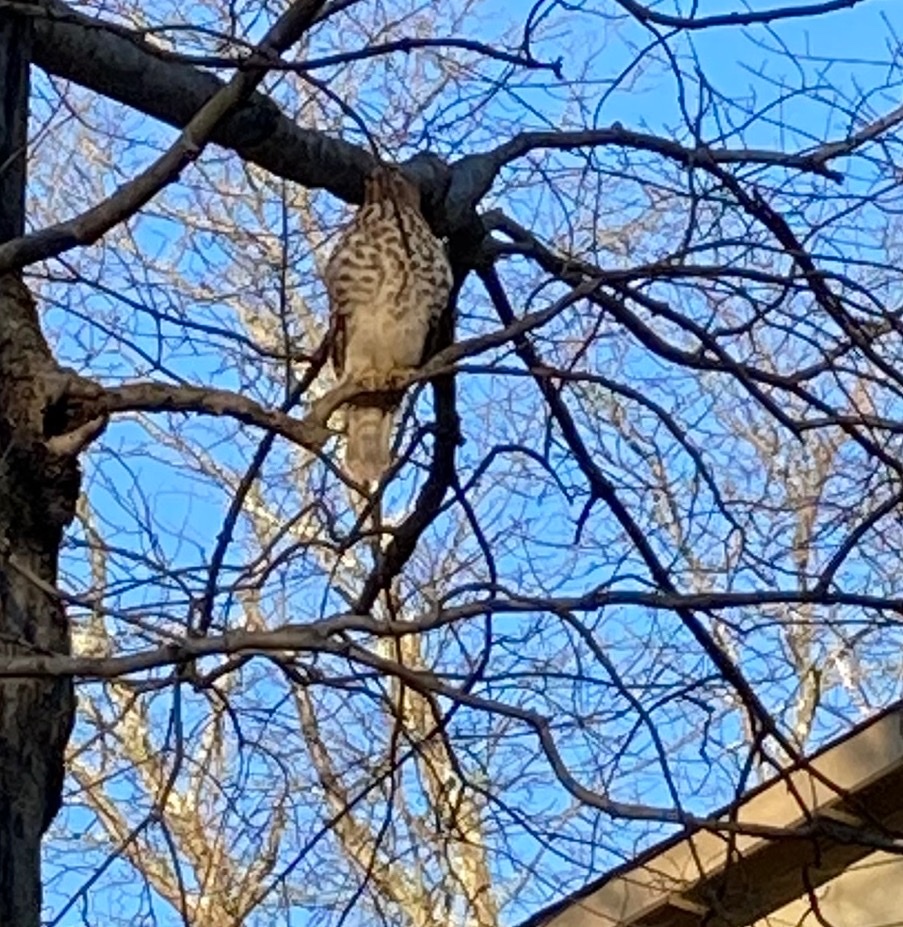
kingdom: Animalia
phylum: Chordata
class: Aves
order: Accipitriformes
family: Accipitridae
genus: Buteo
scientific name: Buteo lineatus
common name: Red-shouldered hawk
